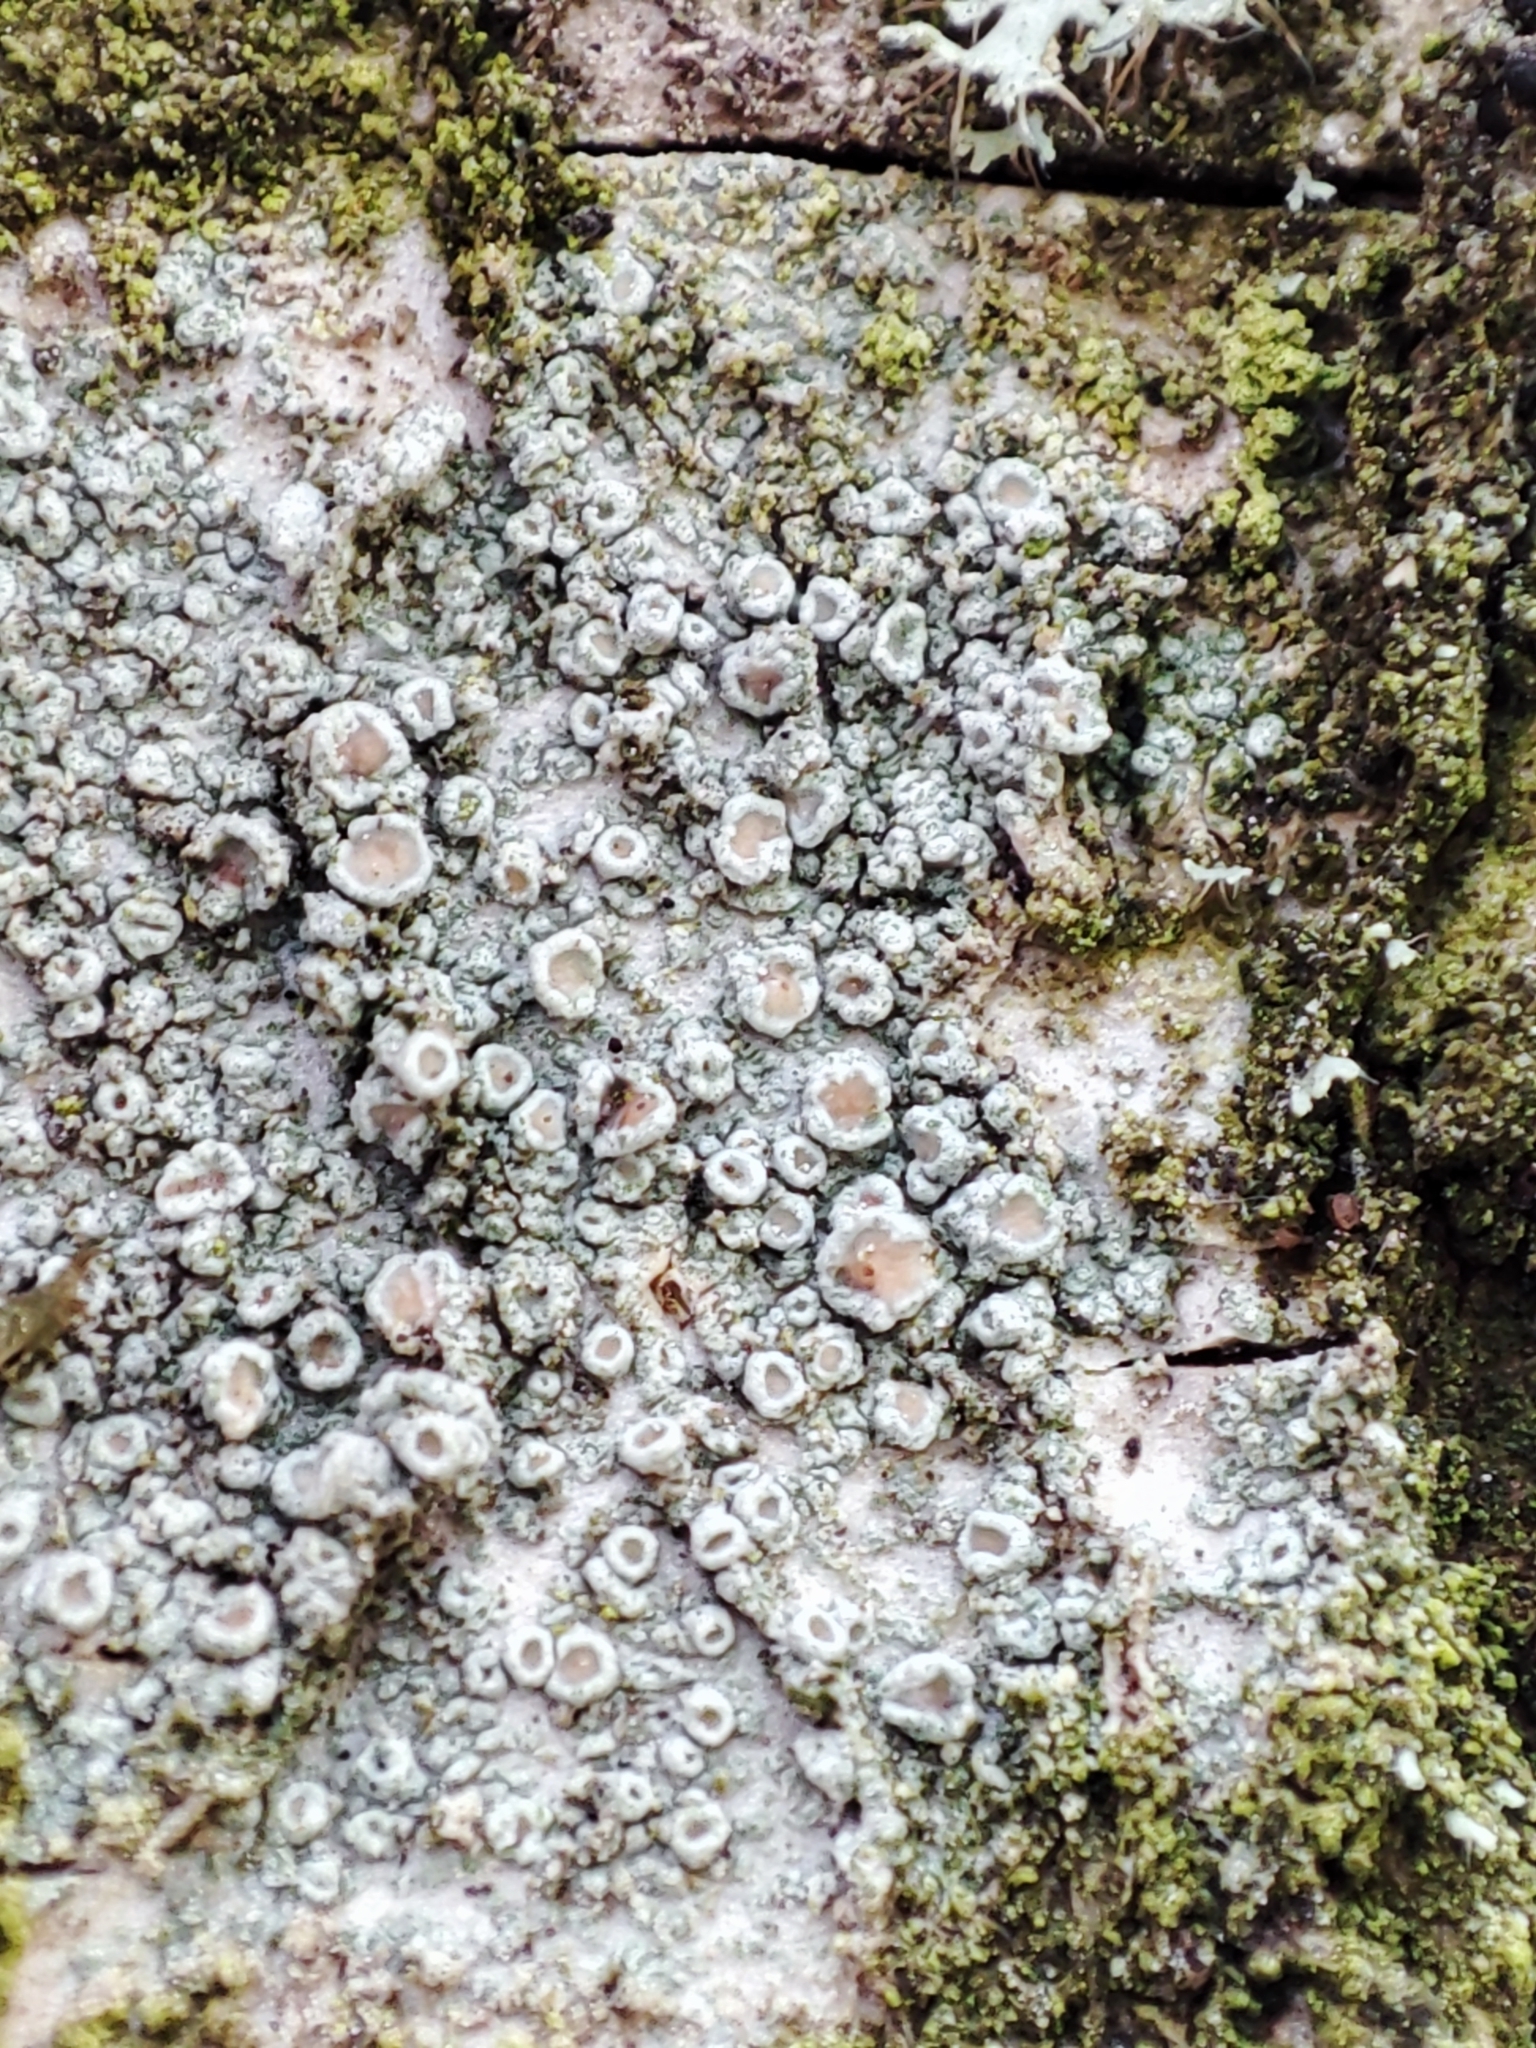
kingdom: Fungi
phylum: Ascomycota
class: Lecanoromycetes
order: Lecanorales
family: Lecanoraceae
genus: Lecanora
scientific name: Lecanora chlarotera
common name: Brown rim-lichen
